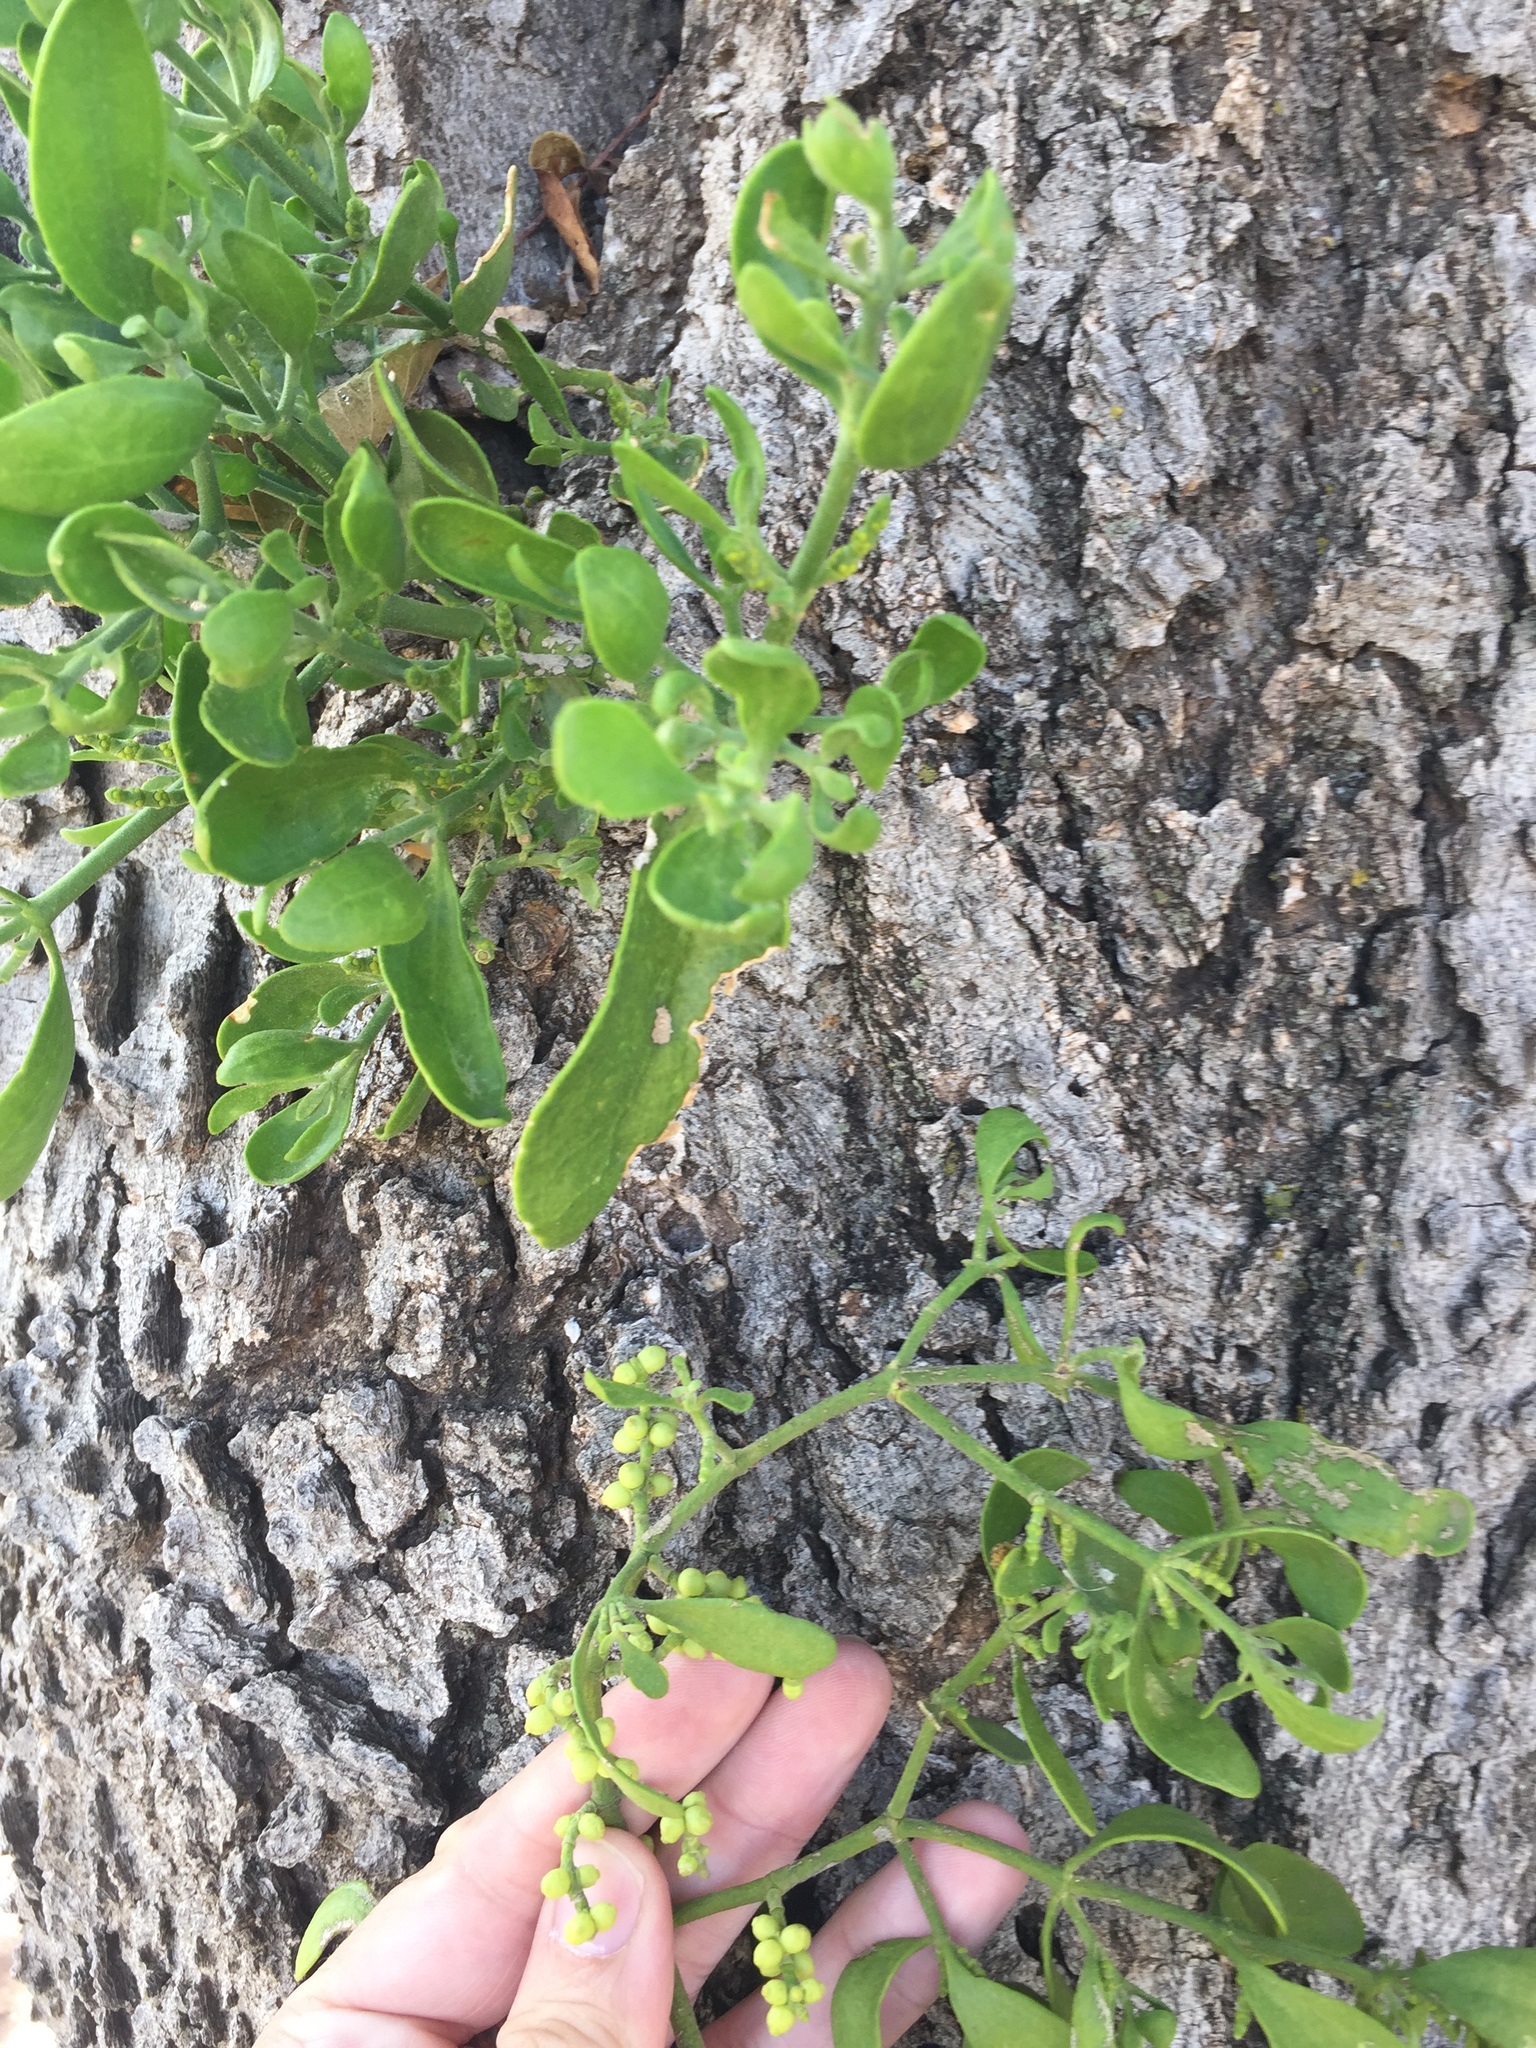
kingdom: Plantae
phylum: Tracheophyta
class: Magnoliopsida
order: Santalales
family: Viscaceae
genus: Phoradendron
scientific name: Phoradendron leucarpum
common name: Pacific mistletoe
